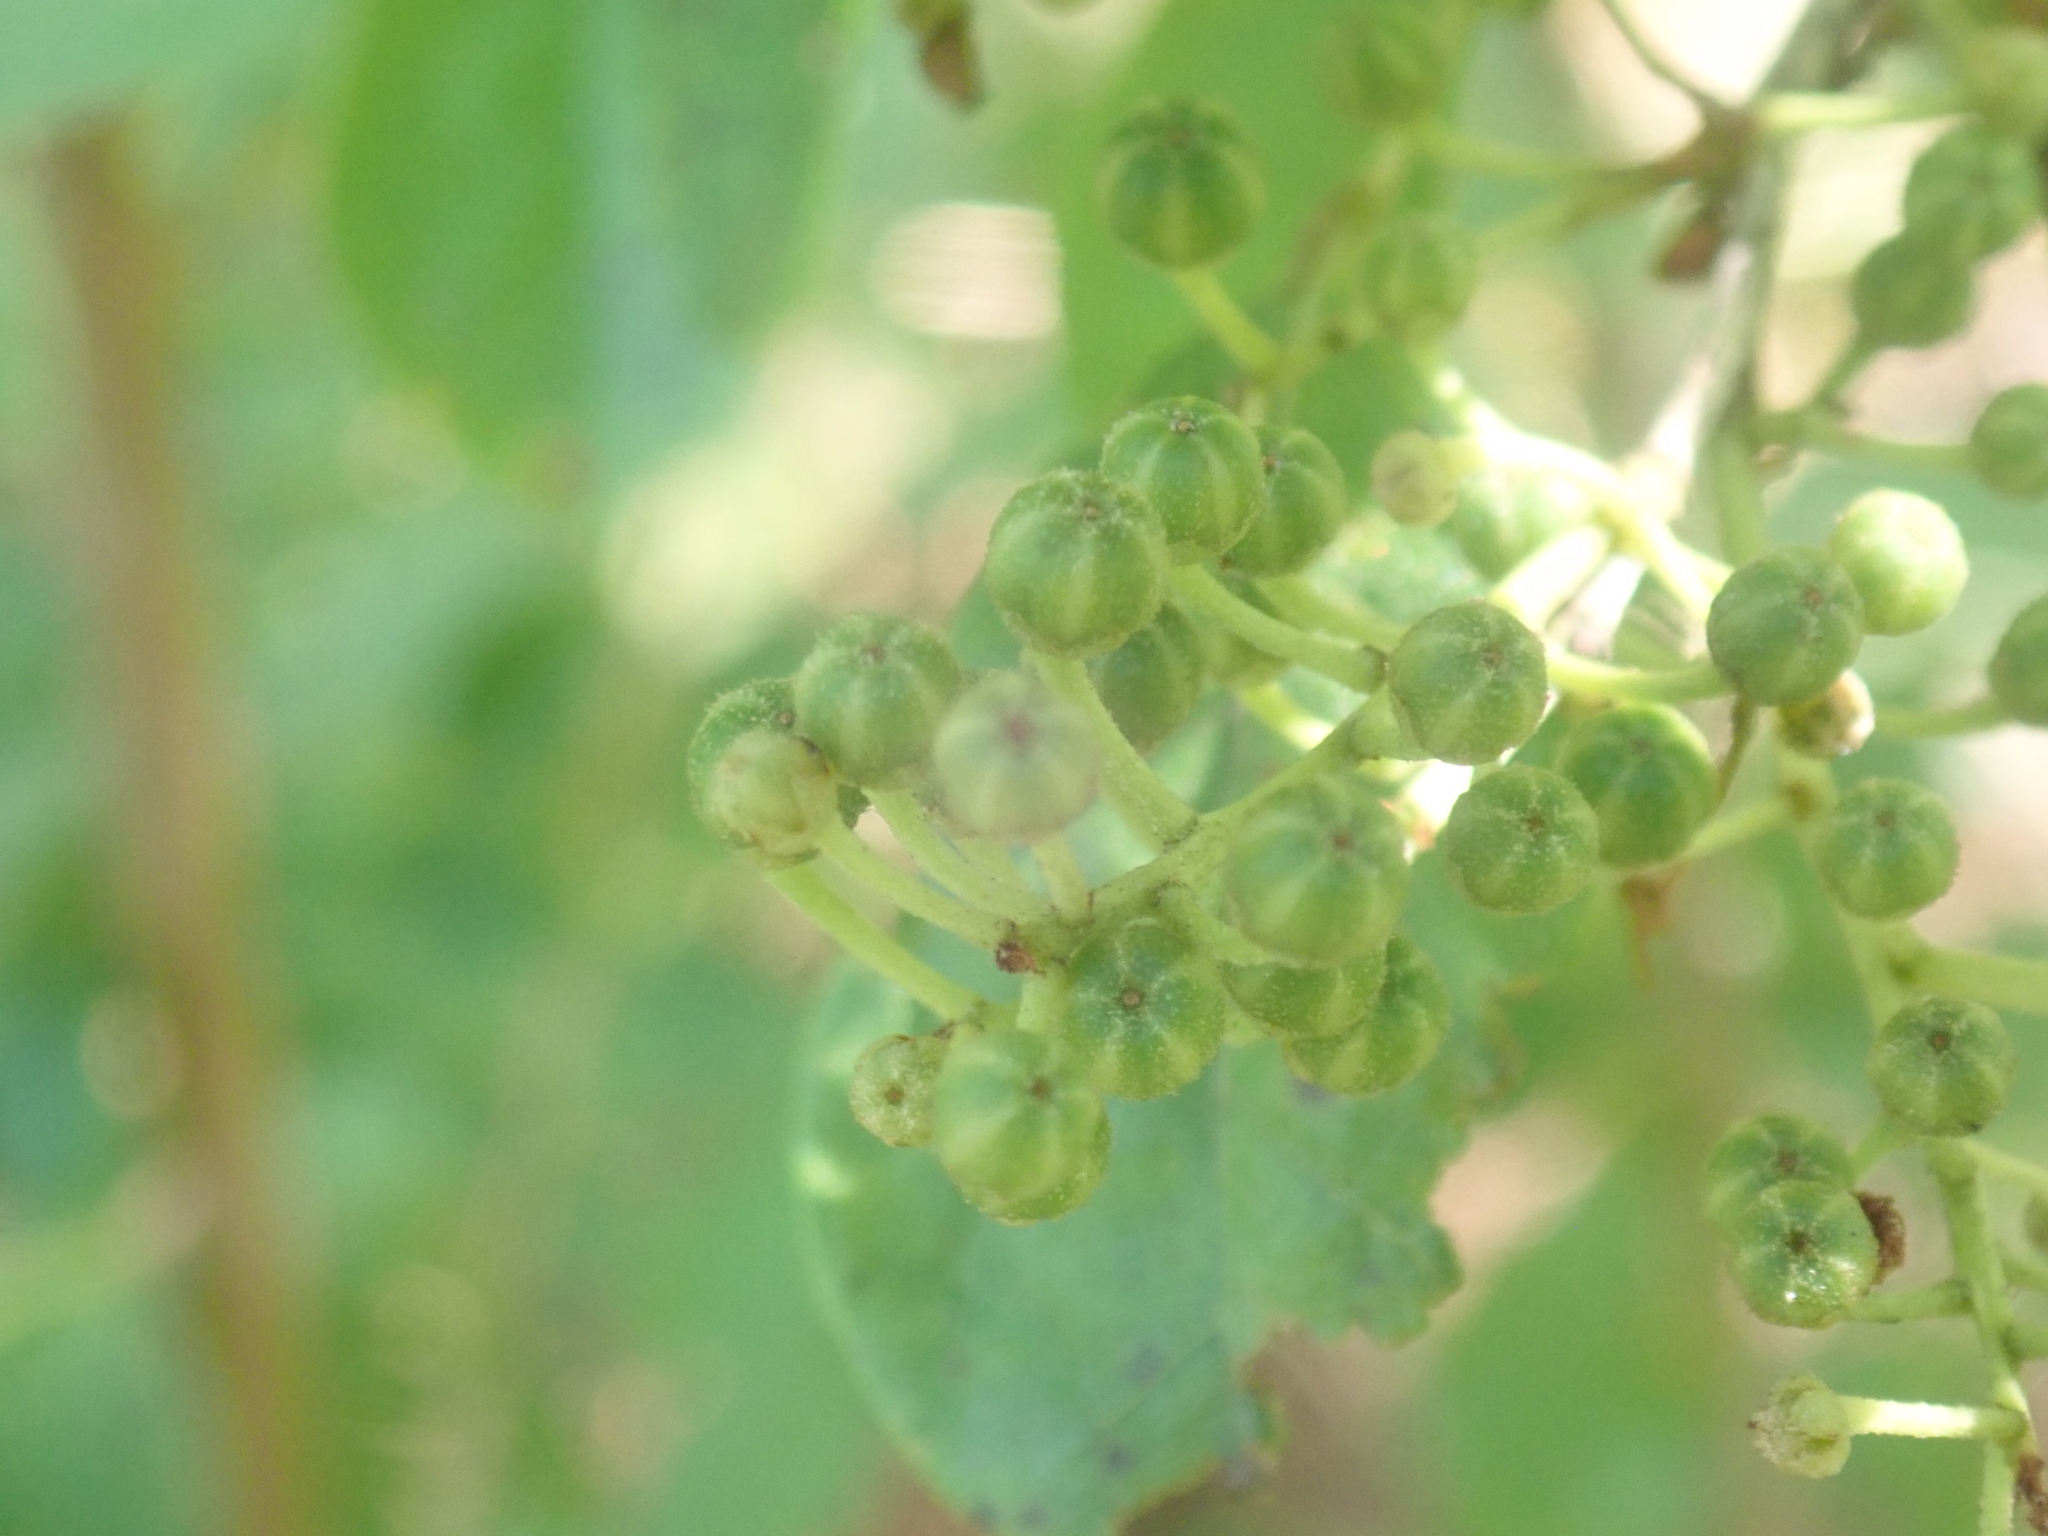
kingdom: Plantae
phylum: Tracheophyta
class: Magnoliopsida
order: Ericales
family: Ericaceae
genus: Lyonia
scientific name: Lyonia ligustrina
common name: Maleberry
